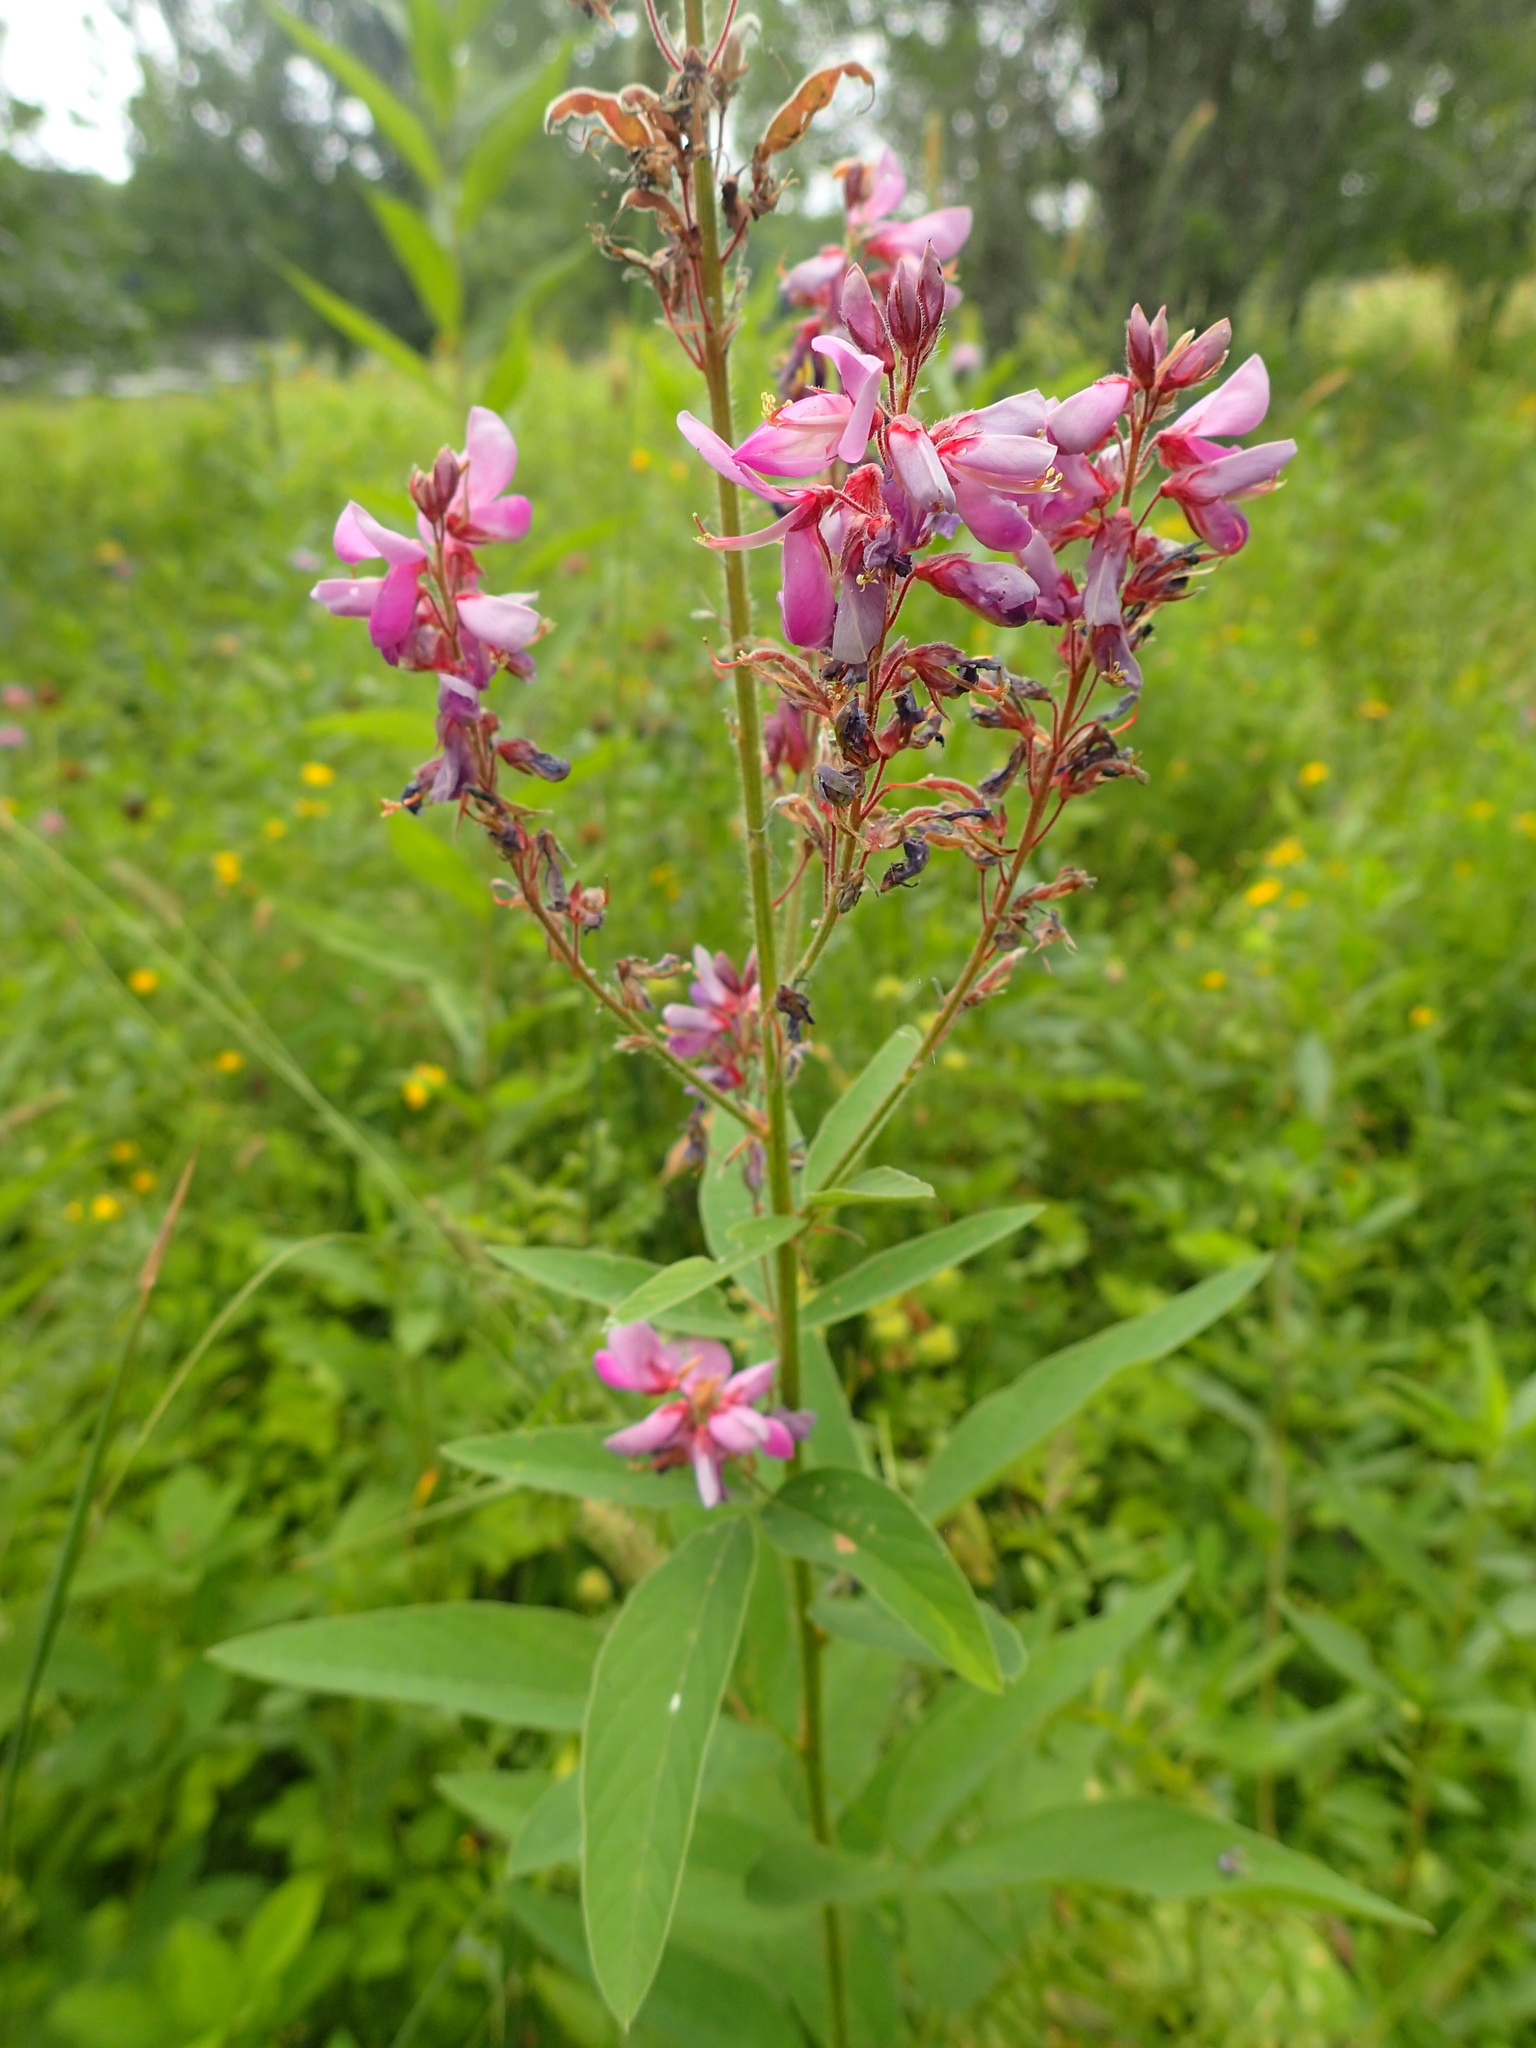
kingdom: Plantae
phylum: Tracheophyta
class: Magnoliopsida
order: Fabales
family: Fabaceae
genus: Desmodium
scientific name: Desmodium canadense
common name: Canada tick-trefoil
